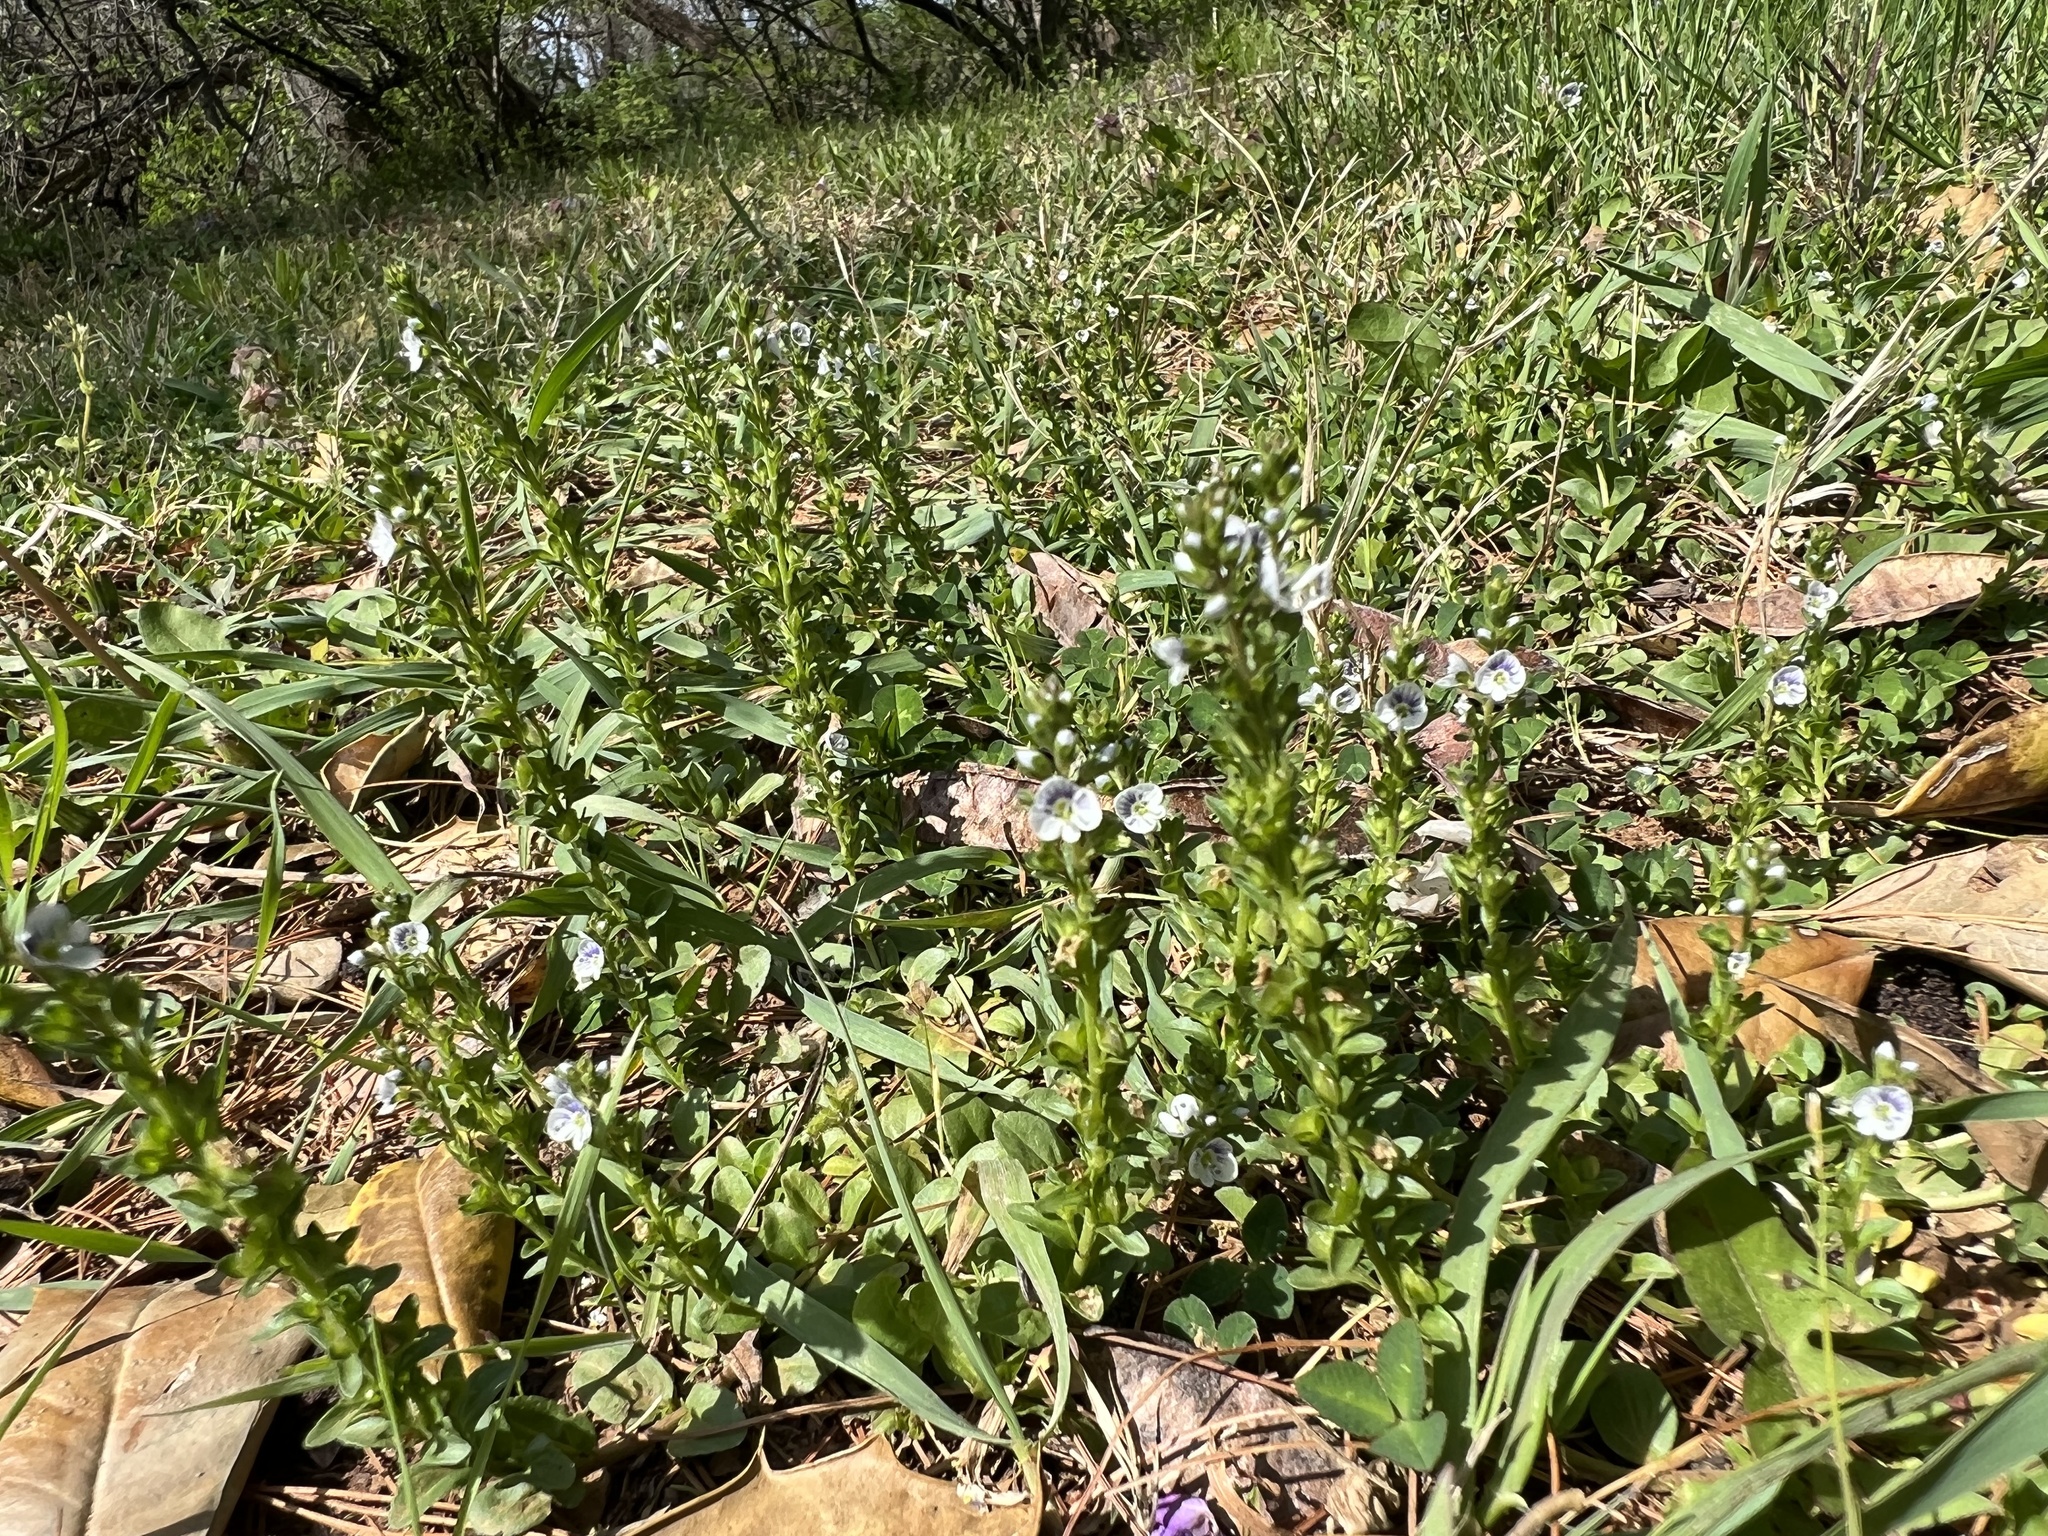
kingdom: Plantae
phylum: Tracheophyta
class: Magnoliopsida
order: Lamiales
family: Plantaginaceae
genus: Veronica
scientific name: Veronica serpyllifolia
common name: Thyme-leaved speedwell
